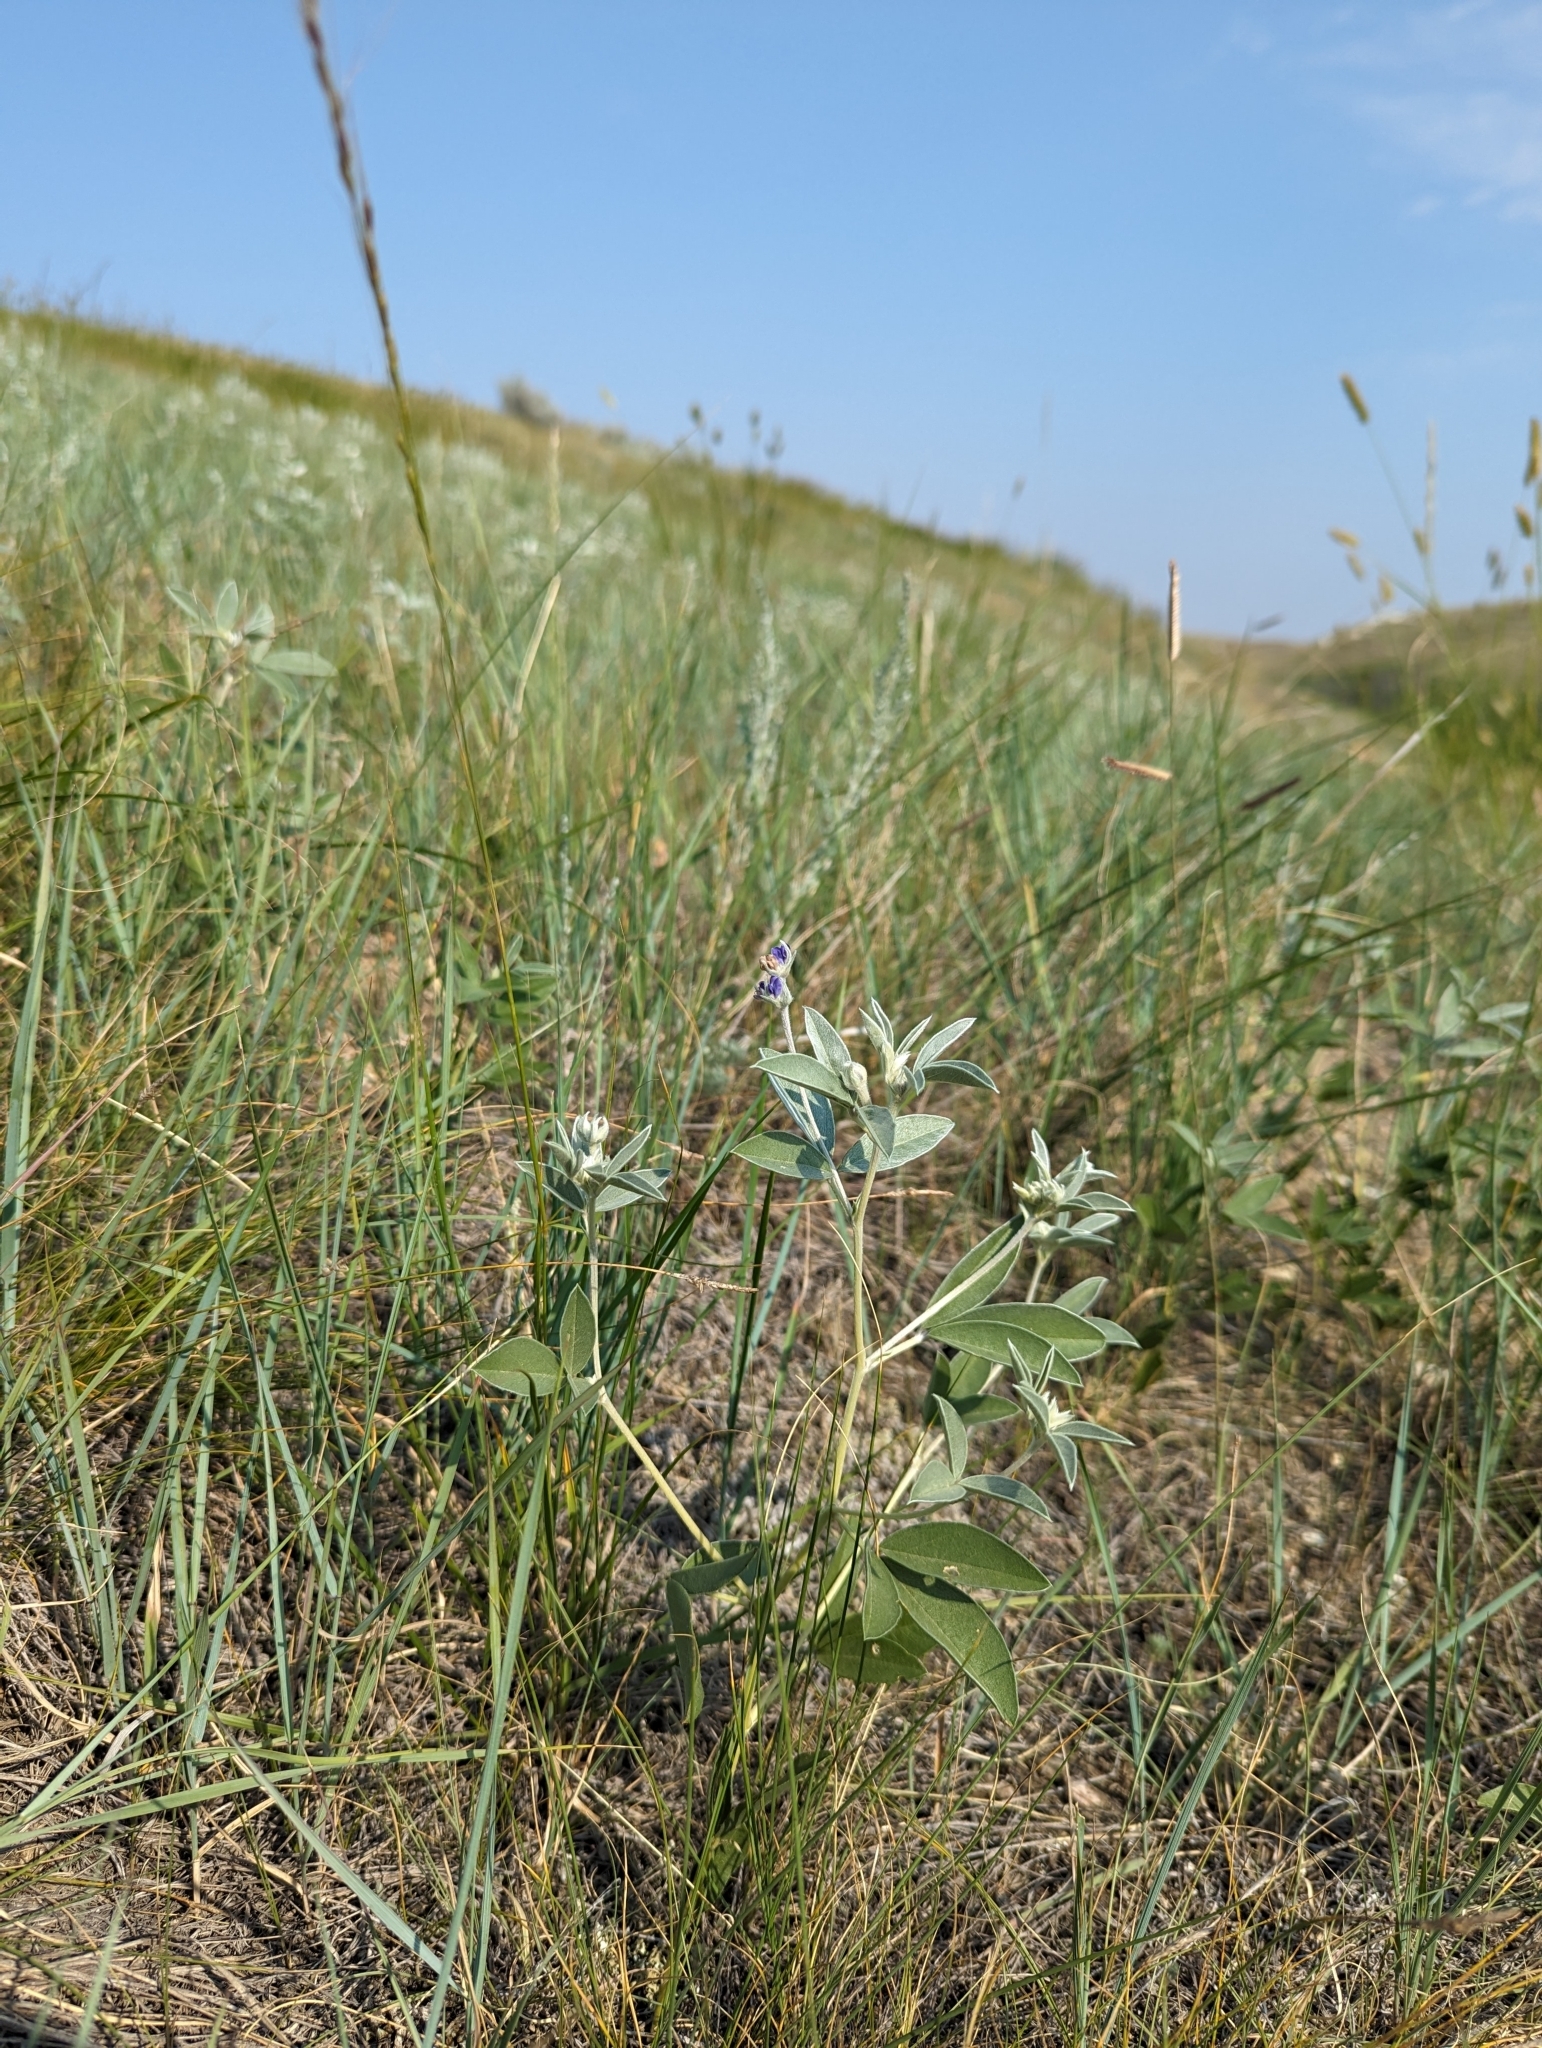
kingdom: Plantae
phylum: Tracheophyta
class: Magnoliopsida
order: Fabales
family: Fabaceae
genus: Pediomelum
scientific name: Pediomelum argophyllum
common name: Silver-leaved indian breadroot
